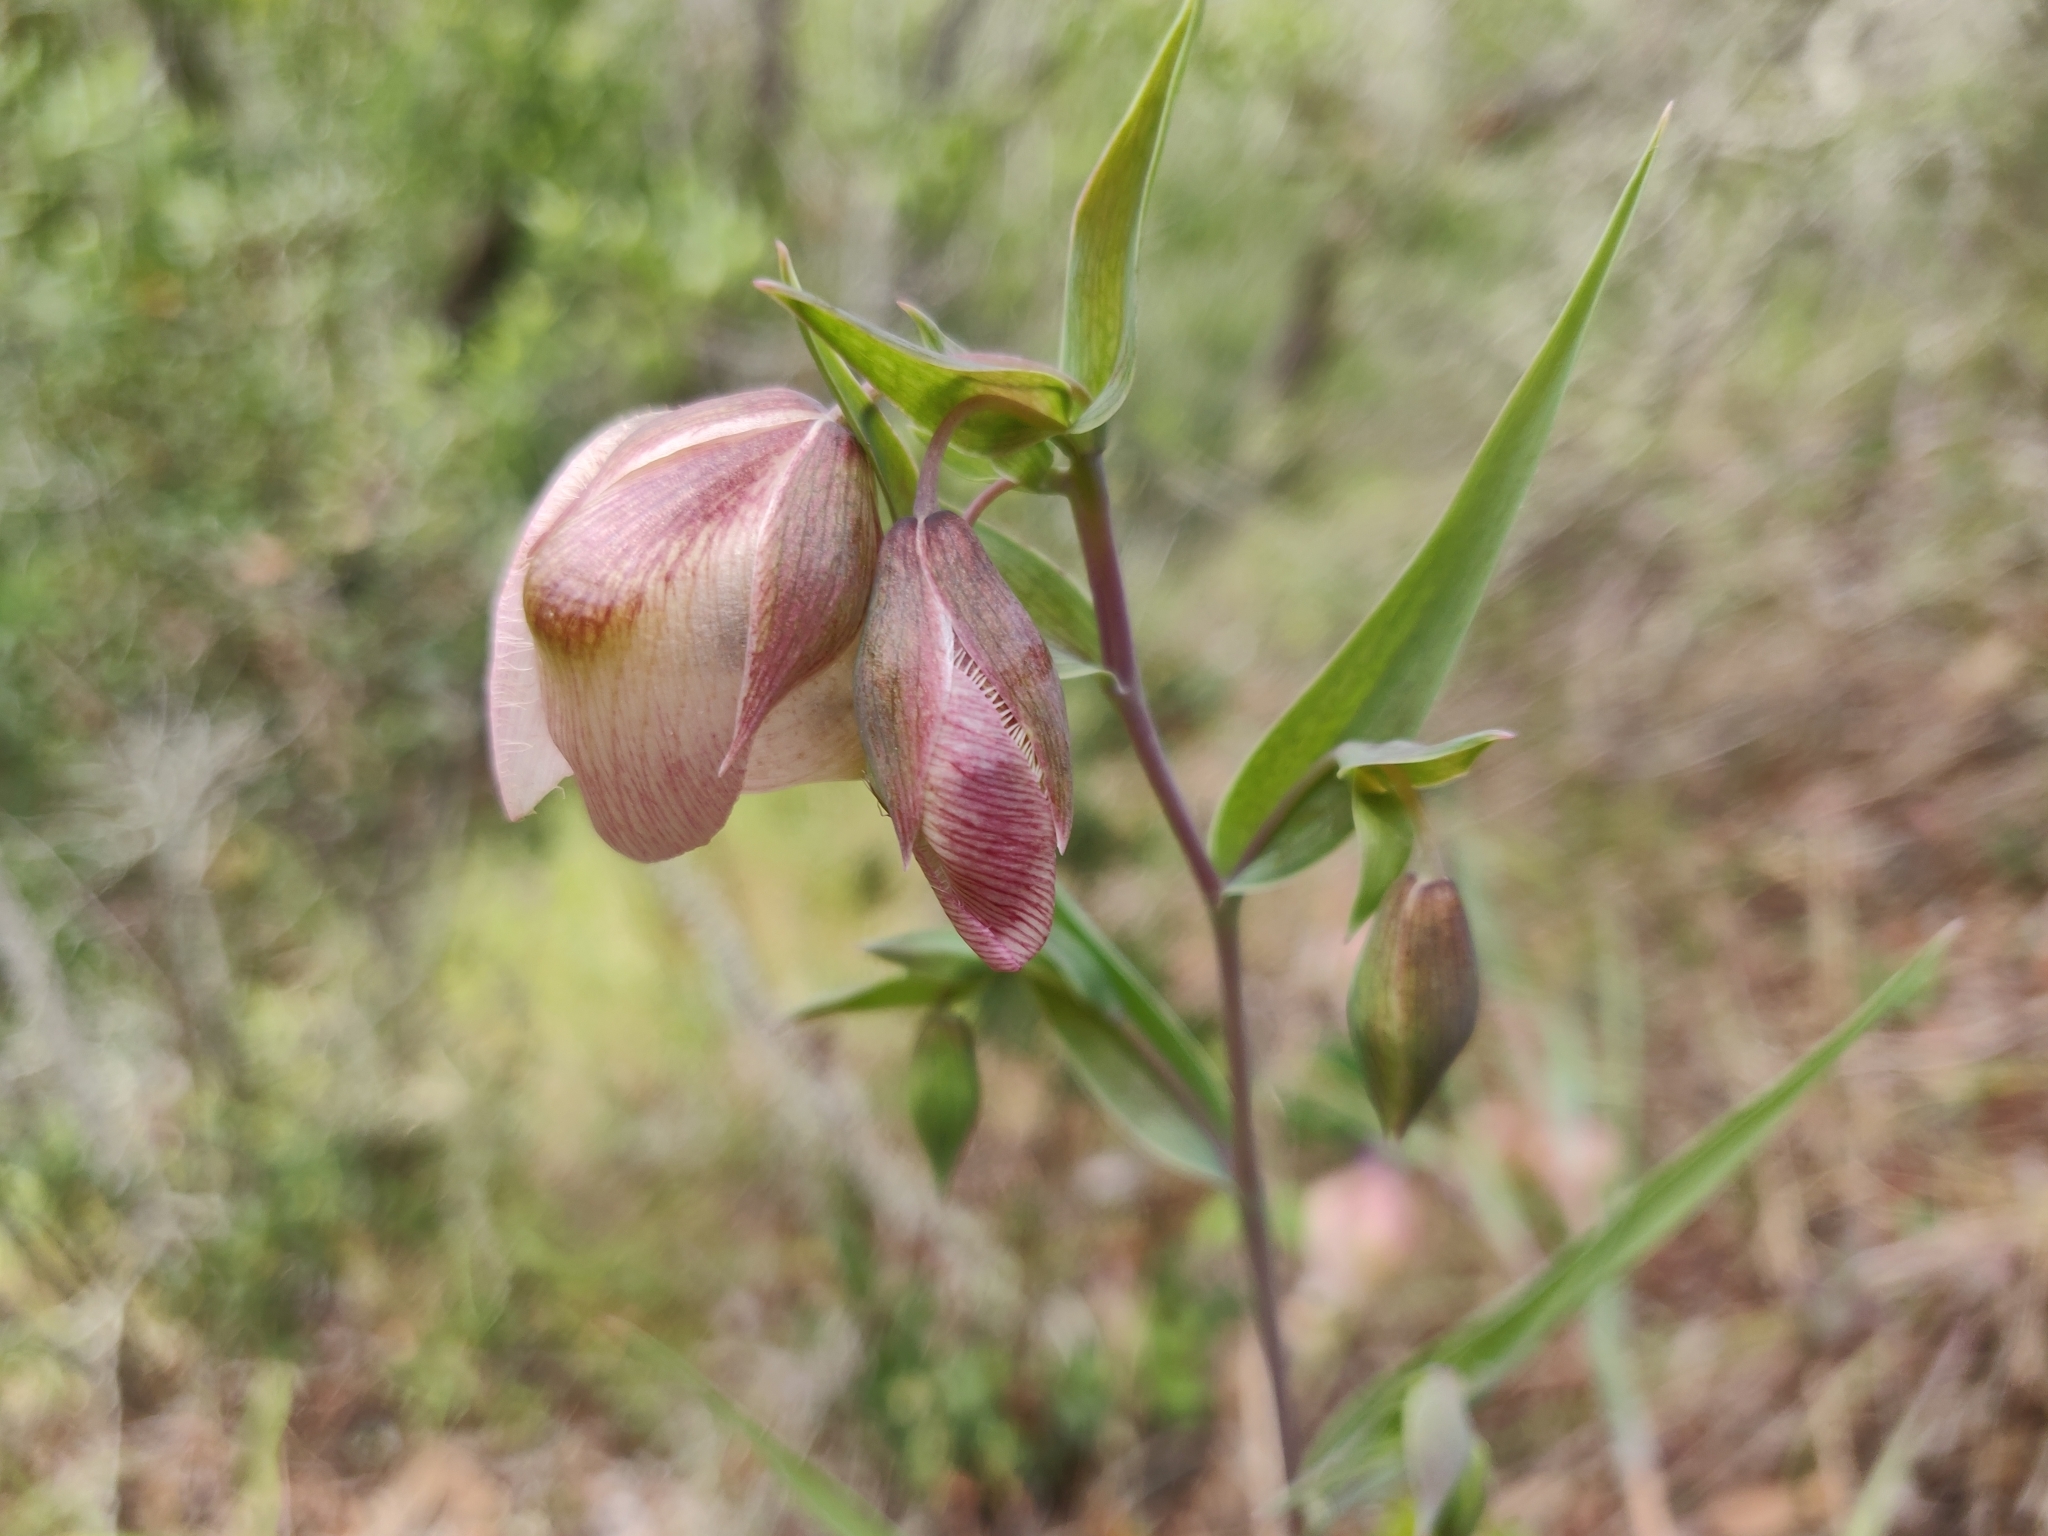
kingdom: Plantae
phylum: Tracheophyta
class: Liliopsida
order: Liliales
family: Liliaceae
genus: Calochortus
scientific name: Calochortus albus
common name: Fairy-lantern
